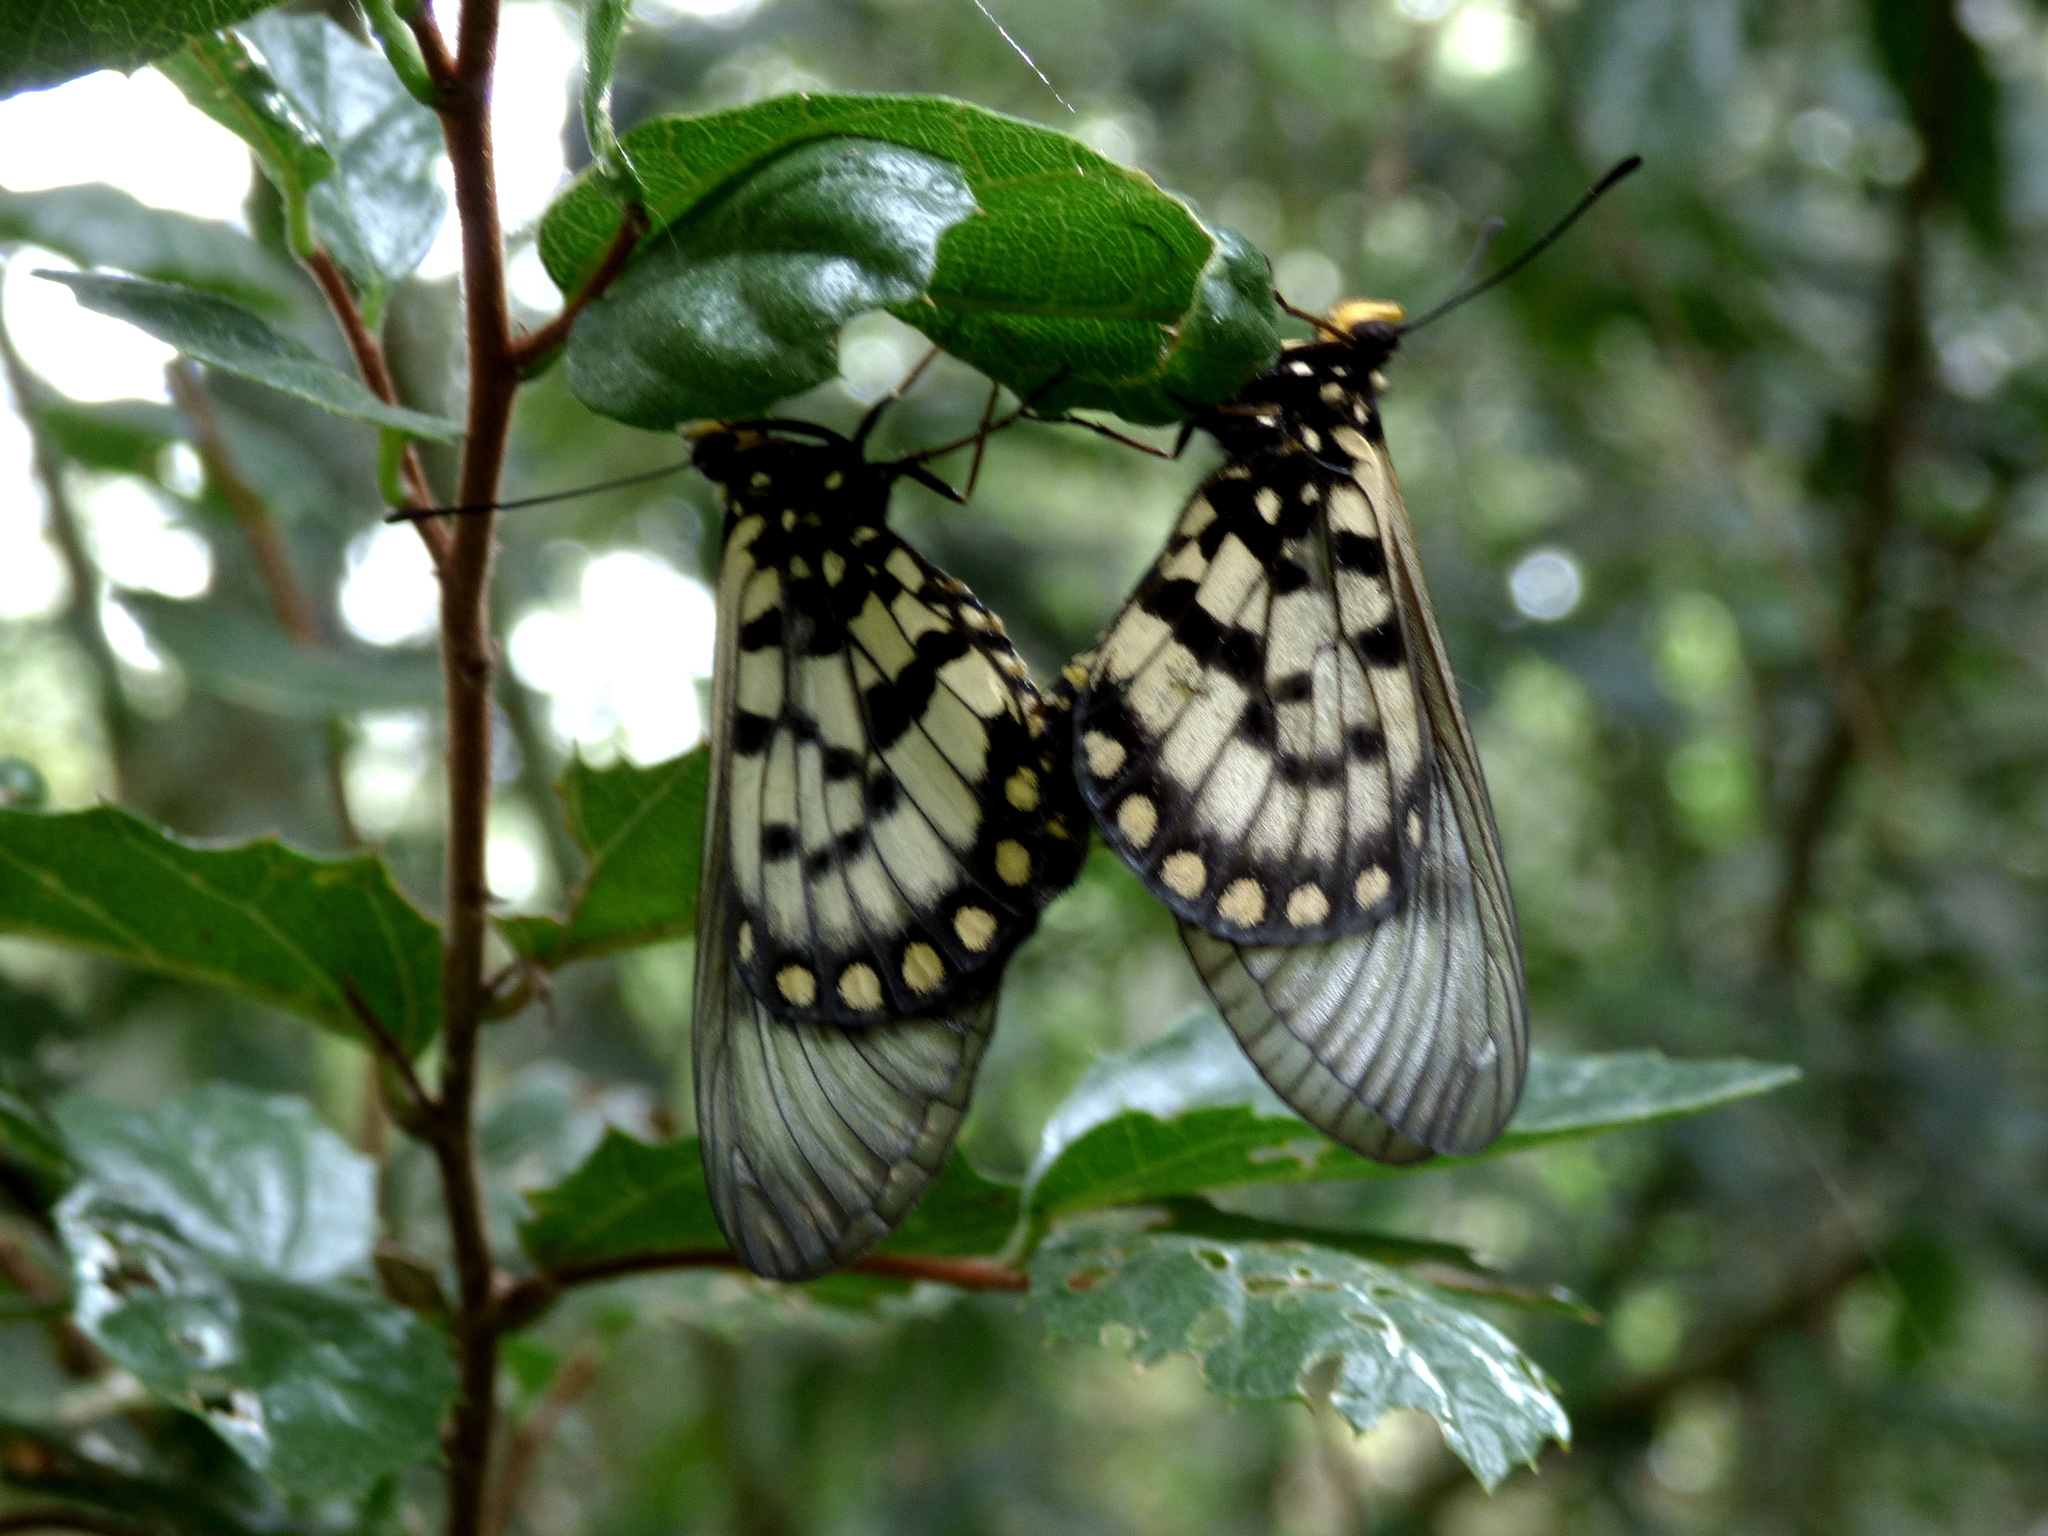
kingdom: Animalia
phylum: Arthropoda
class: Insecta
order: Lepidoptera
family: Nymphalidae
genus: Acraea
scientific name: Acraea andromacha
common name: Glasswing
